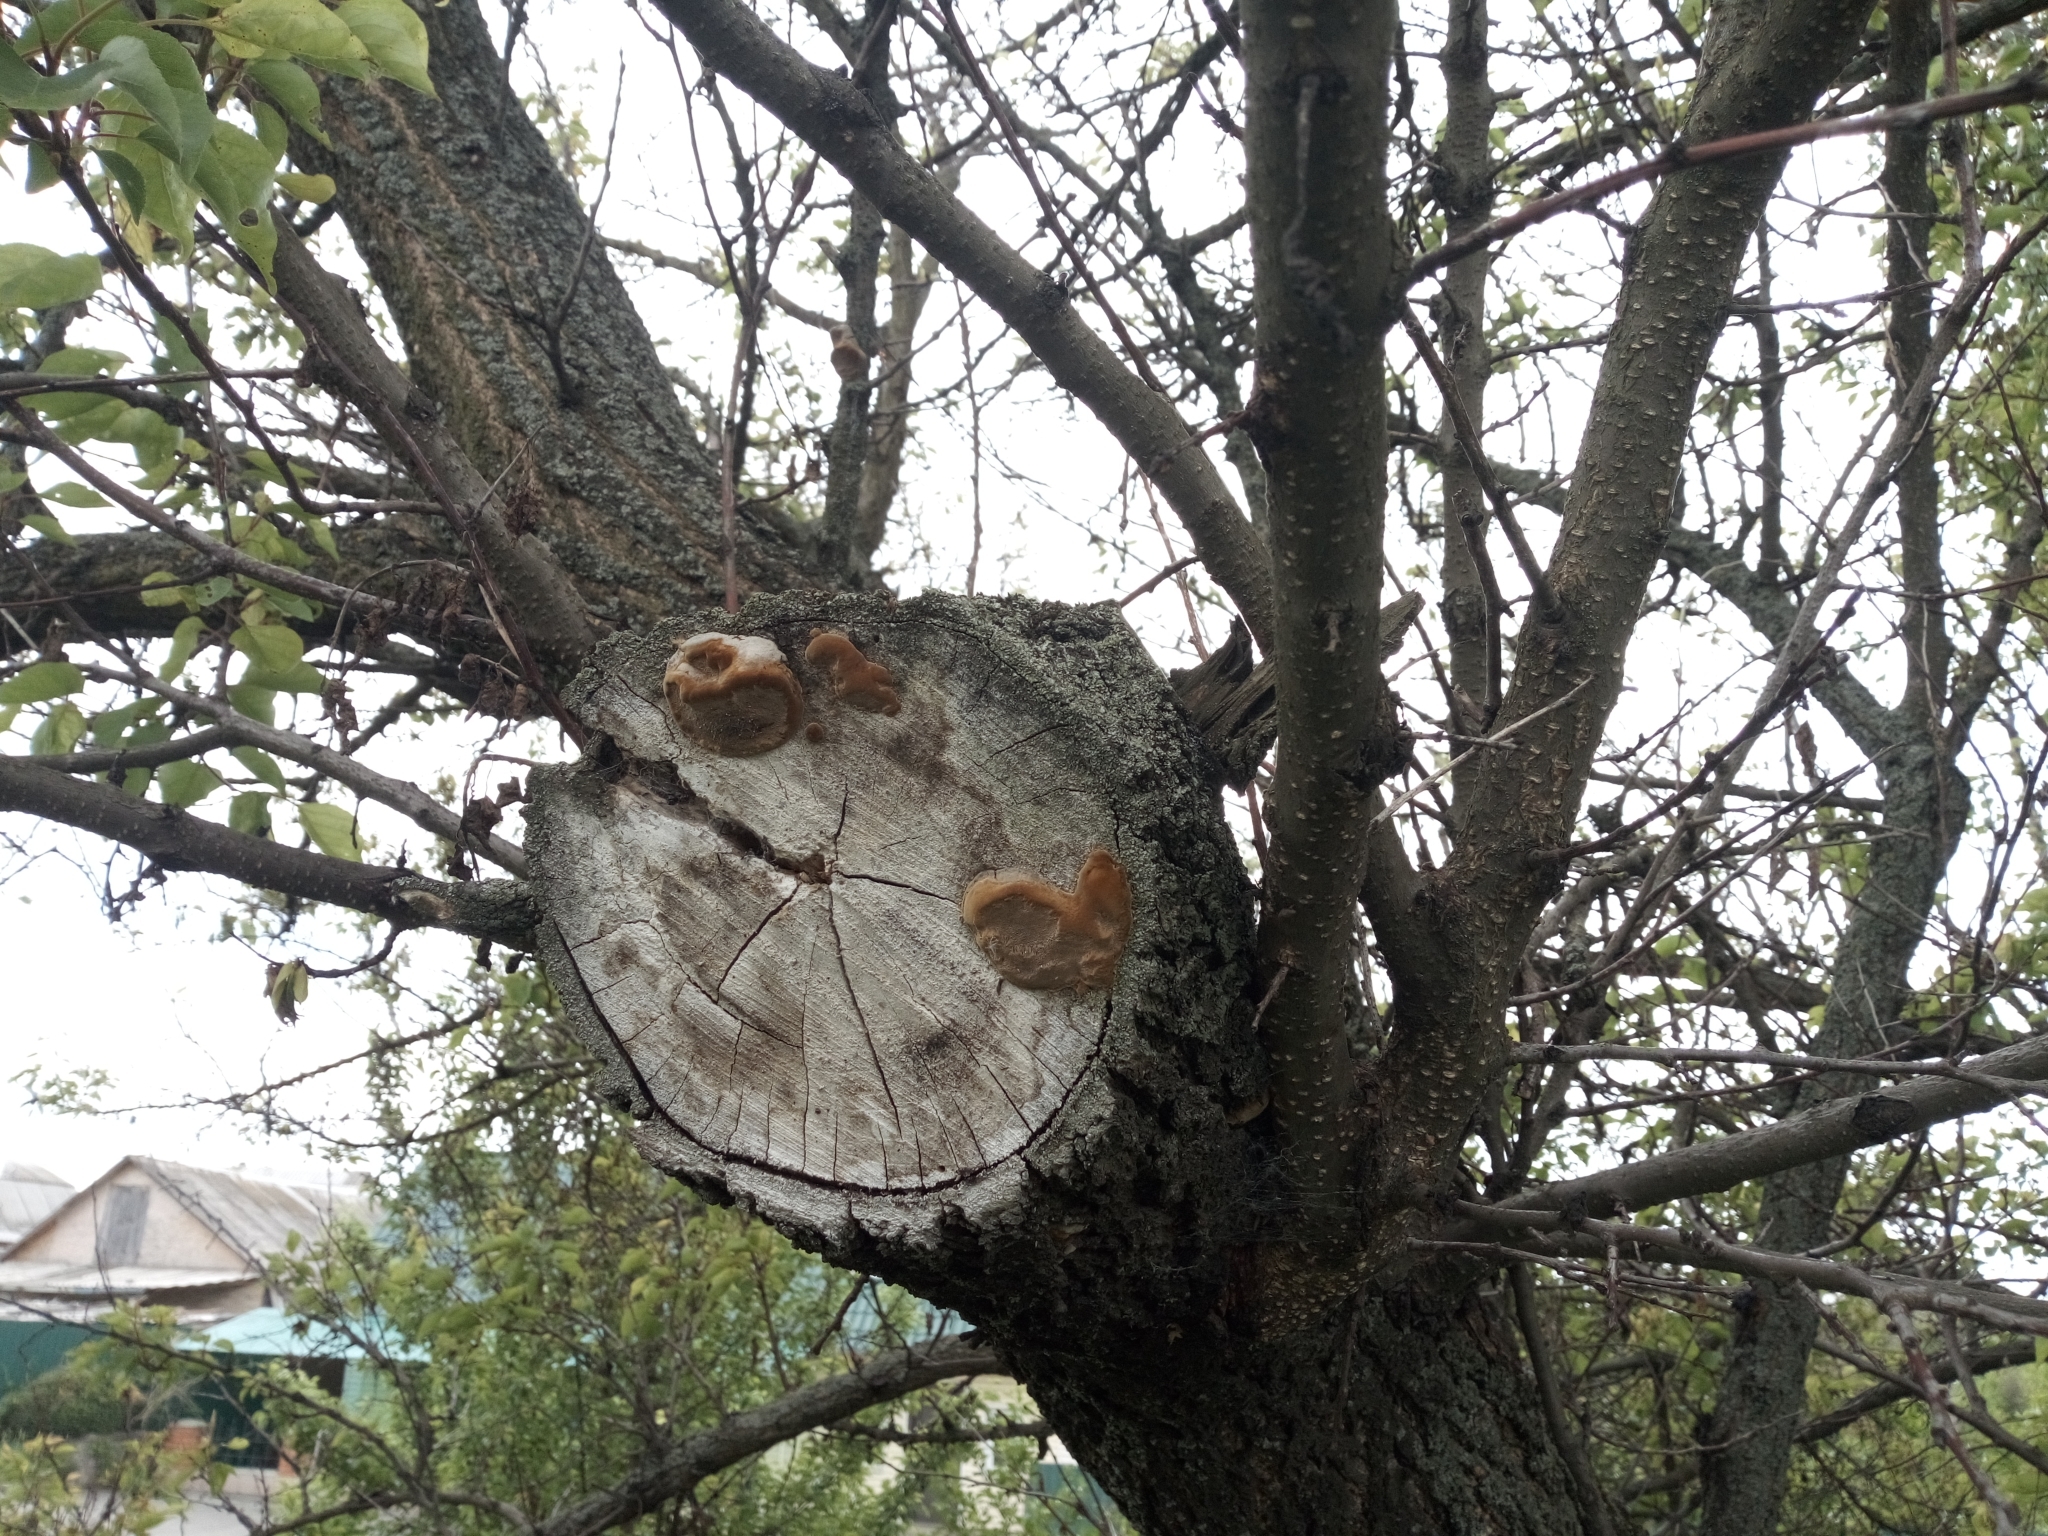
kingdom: Fungi
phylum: Basidiomycota
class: Agaricomycetes
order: Hymenochaetales
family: Hymenochaetaceae
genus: Phellinus
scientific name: Phellinus igniarius
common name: Willow bracket
